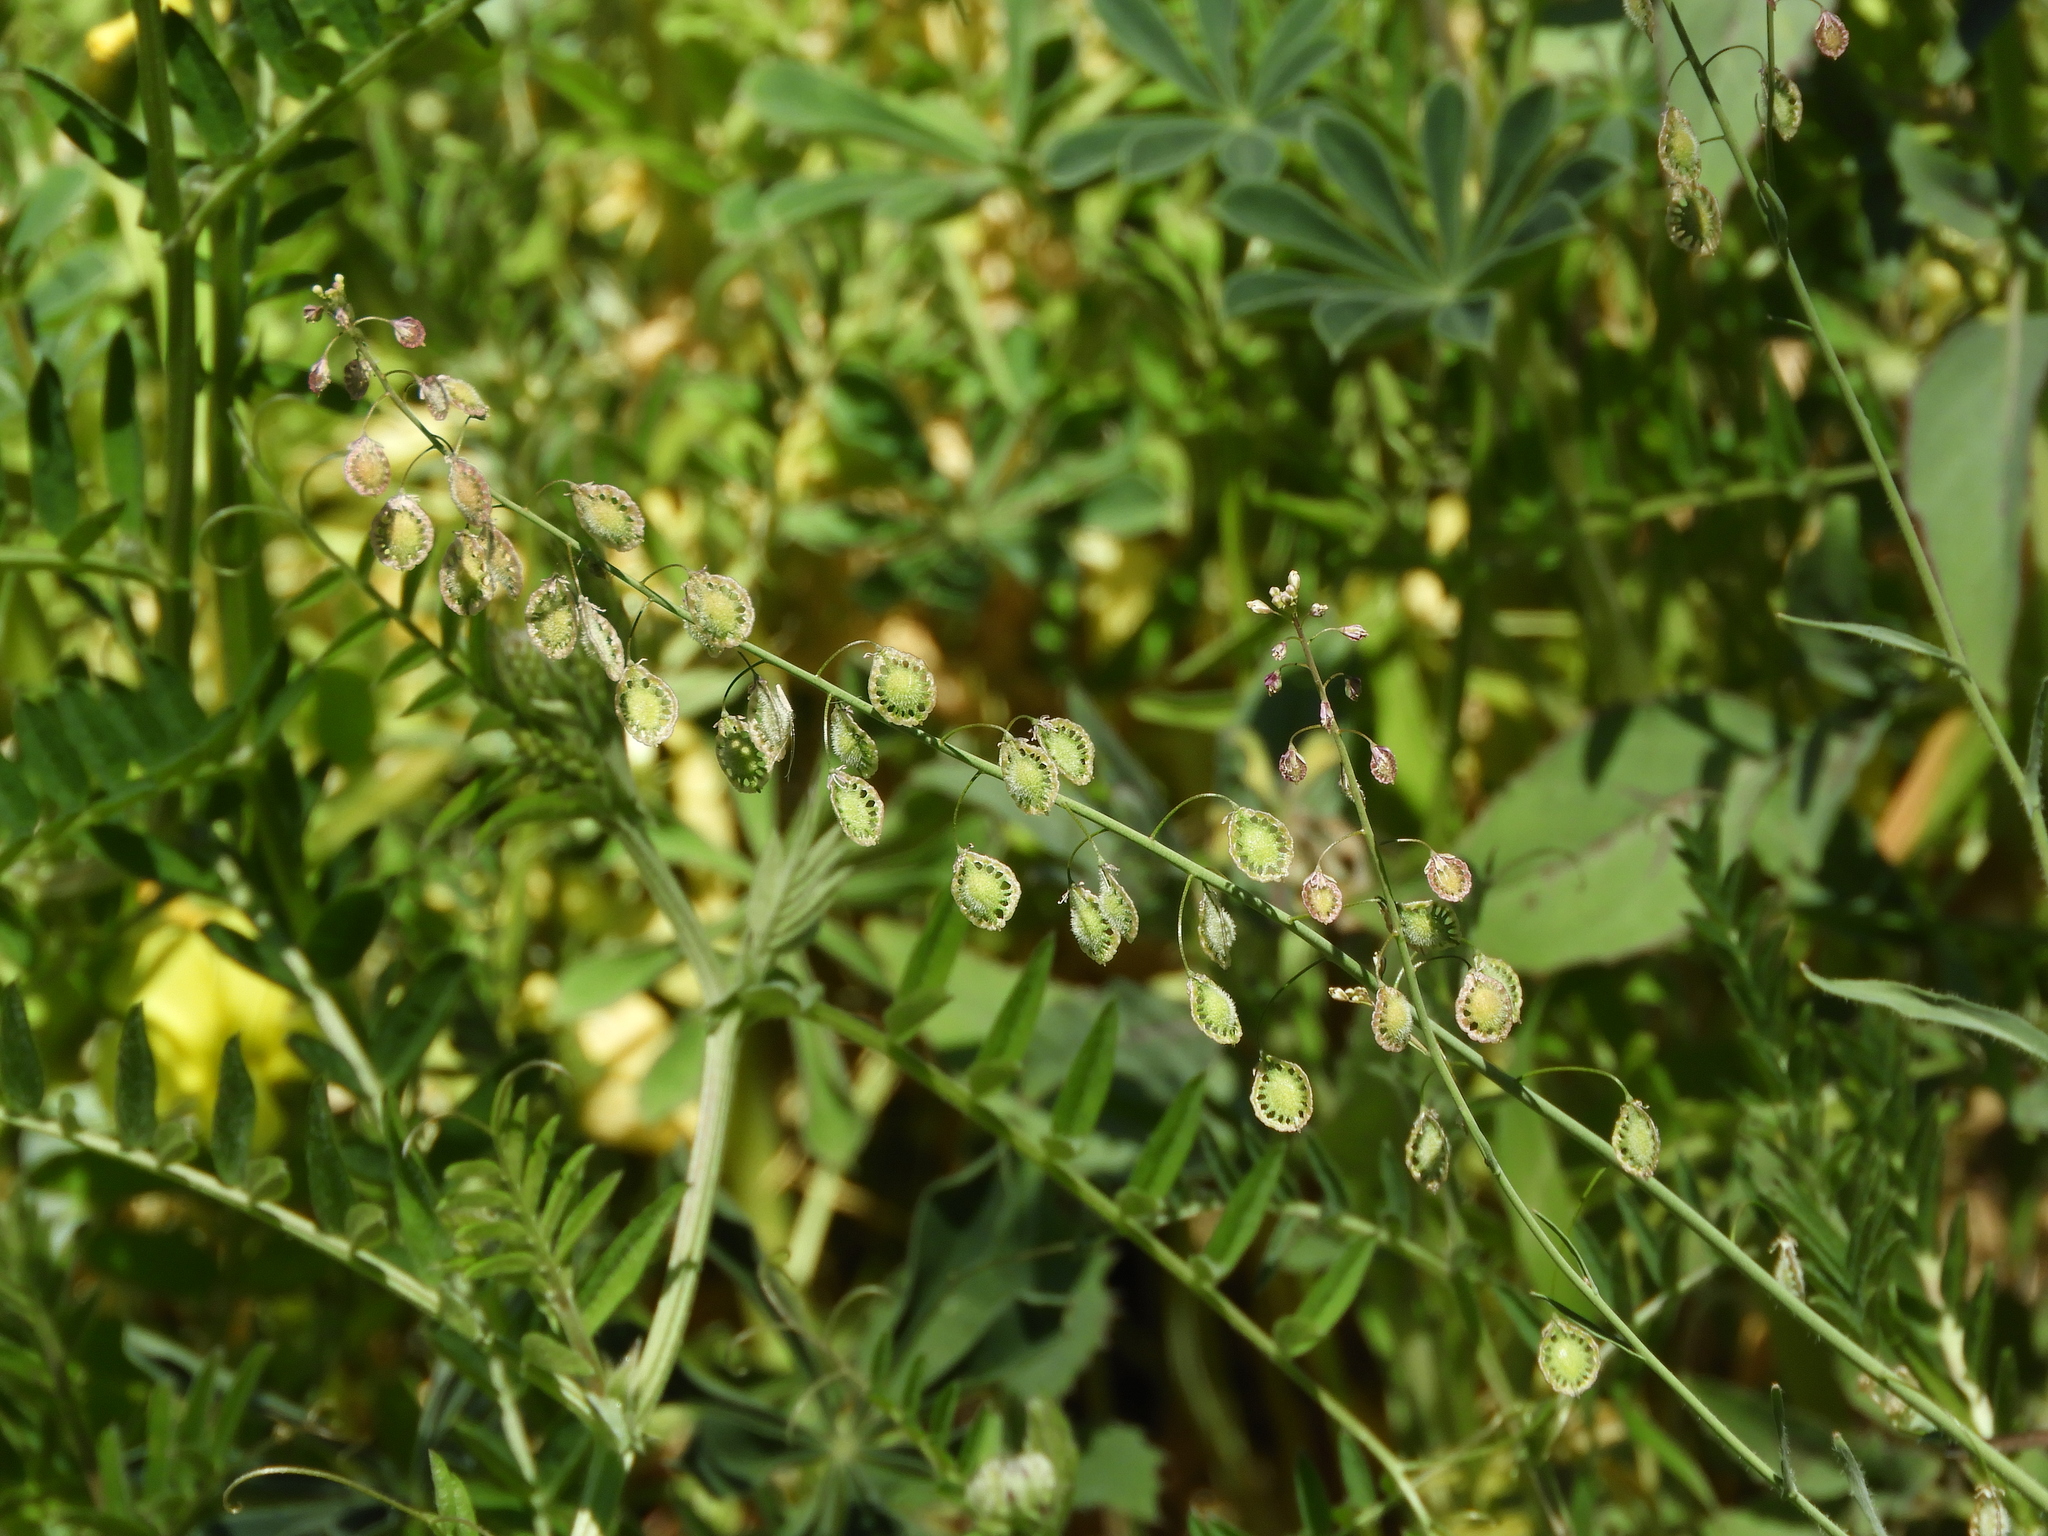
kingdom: Plantae
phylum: Tracheophyta
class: Magnoliopsida
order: Brassicales
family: Brassicaceae
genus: Thysanocarpus
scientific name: Thysanocarpus curvipes
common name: Sand fringepod
